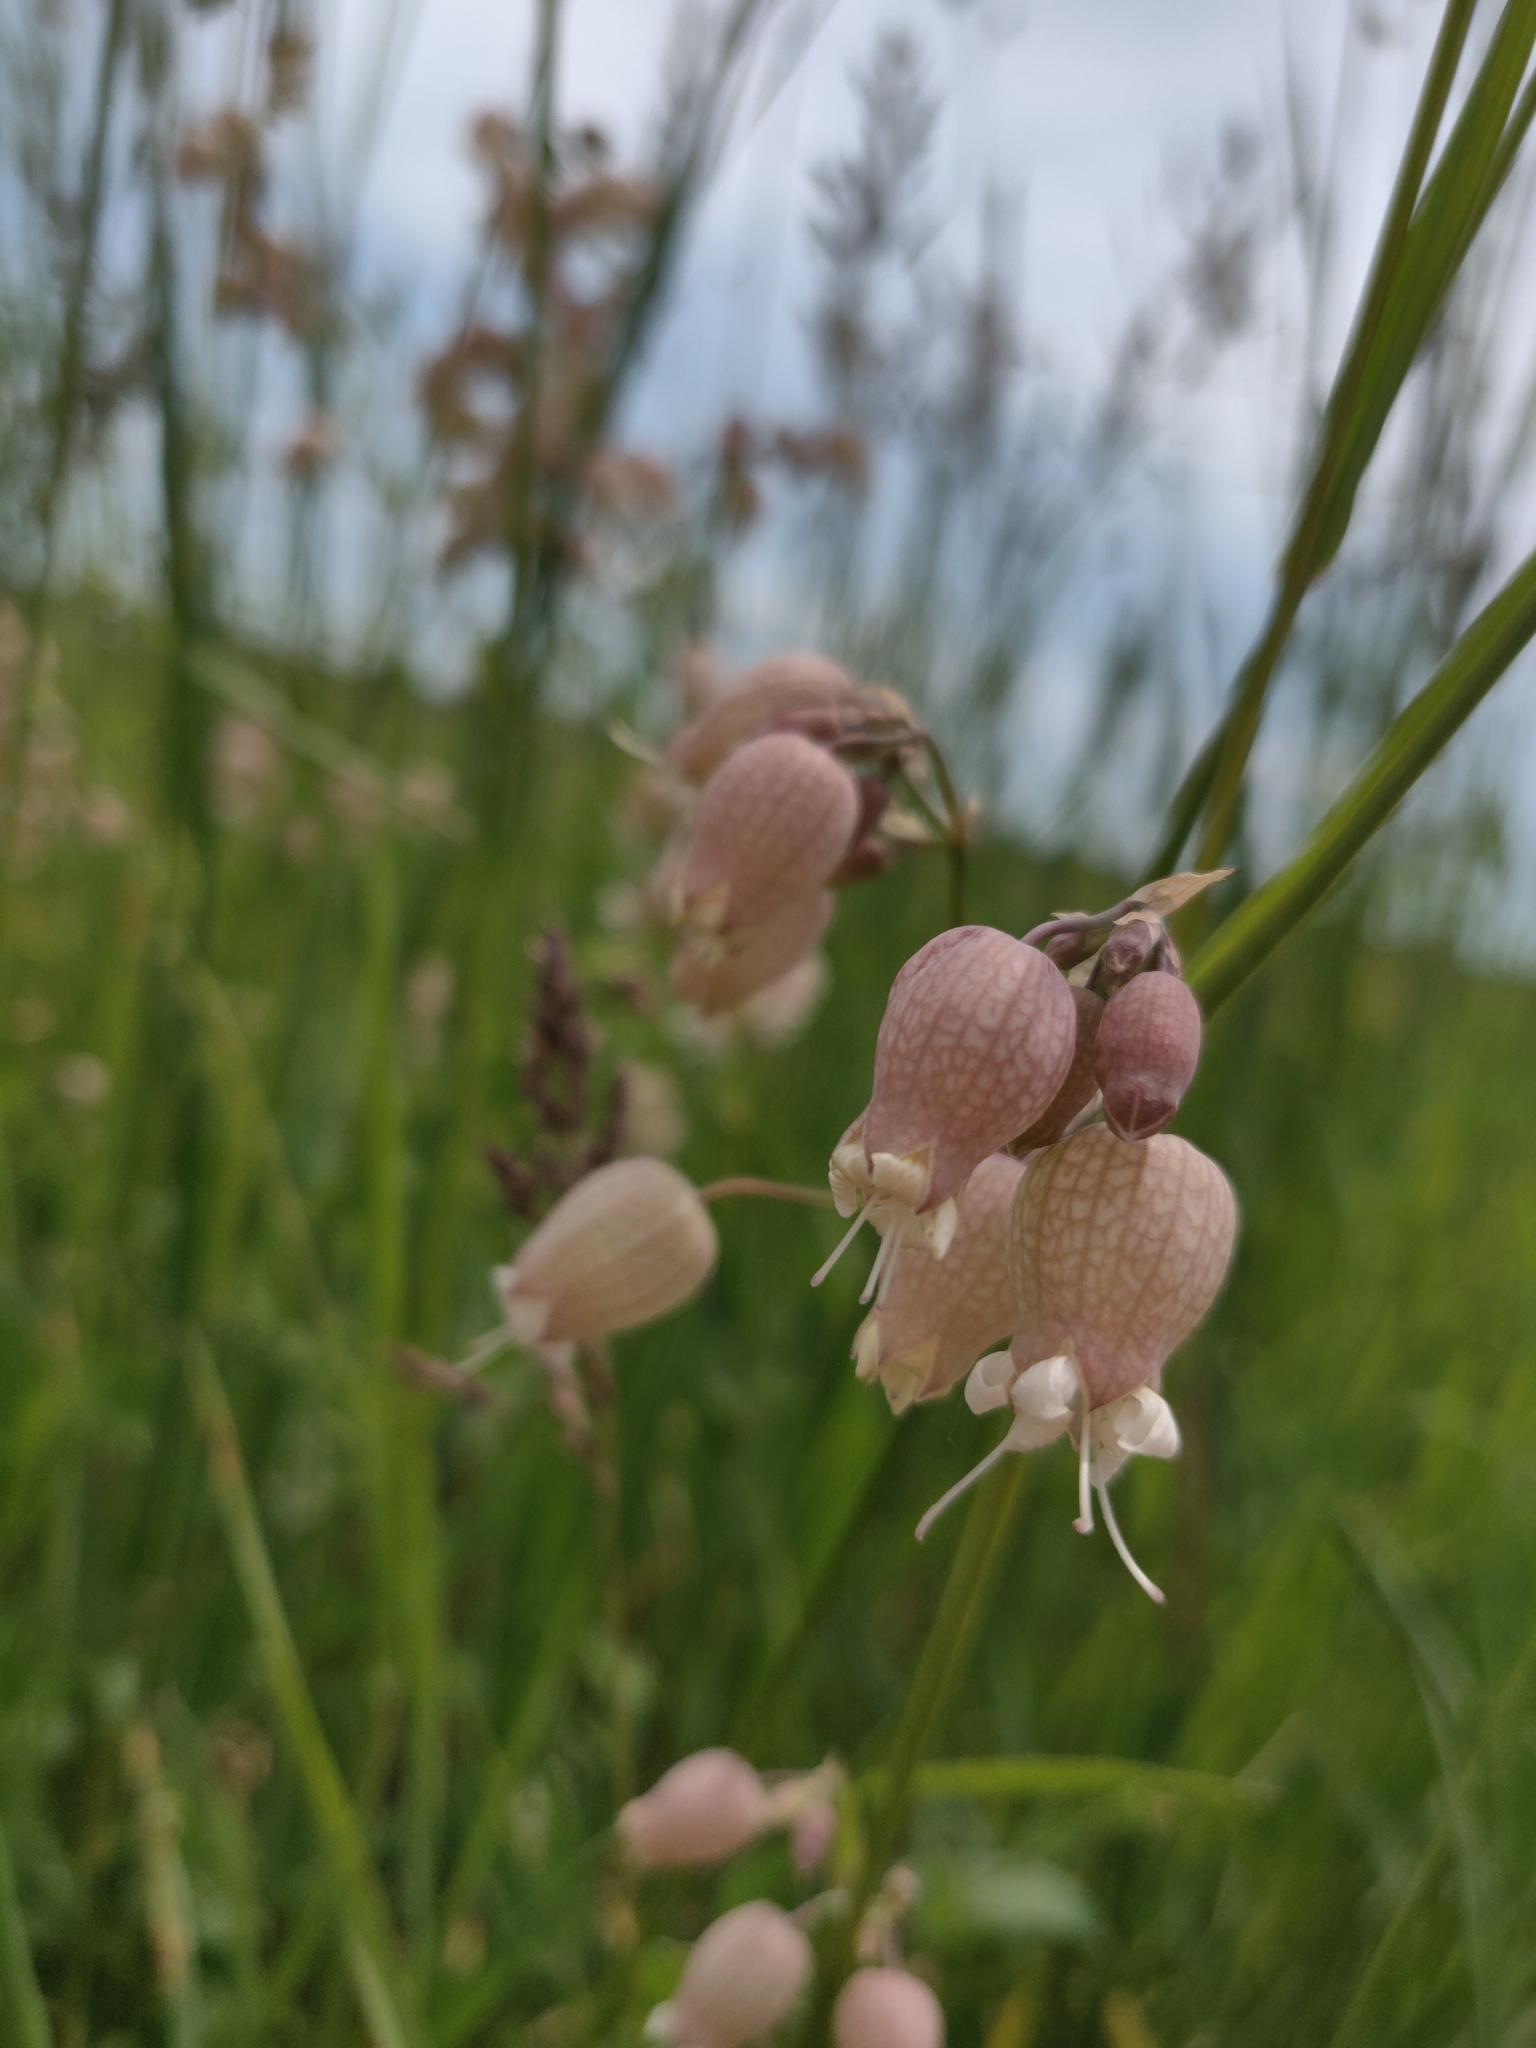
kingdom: Plantae
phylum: Tracheophyta
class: Magnoliopsida
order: Caryophyllales
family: Caryophyllaceae
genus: Silene
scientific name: Silene vulgaris
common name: Bladder campion
